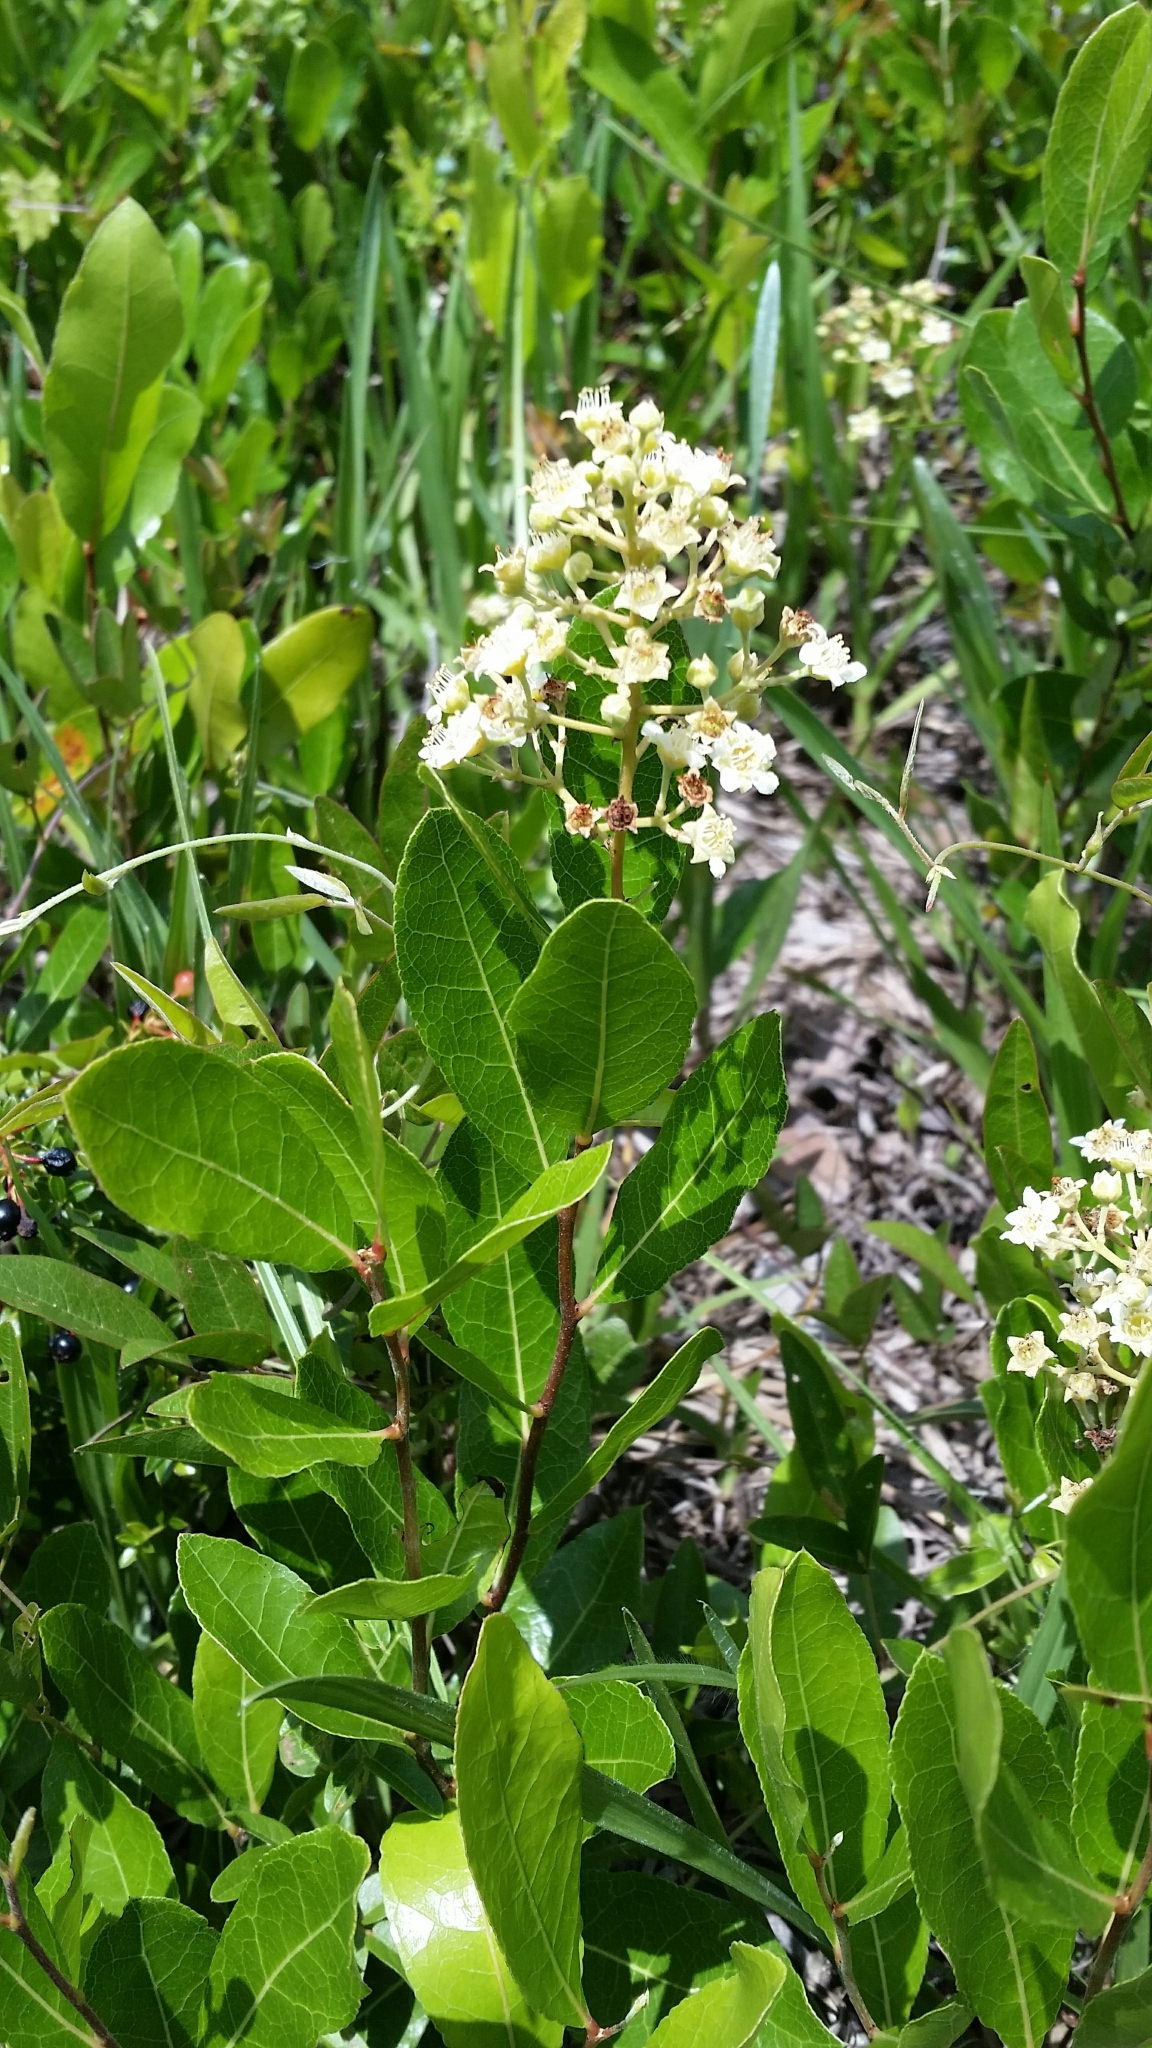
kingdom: Plantae
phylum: Tracheophyta
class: Magnoliopsida
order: Malpighiales
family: Chrysobalanaceae
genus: Geobalanus
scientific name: Geobalanus oblongifolius
